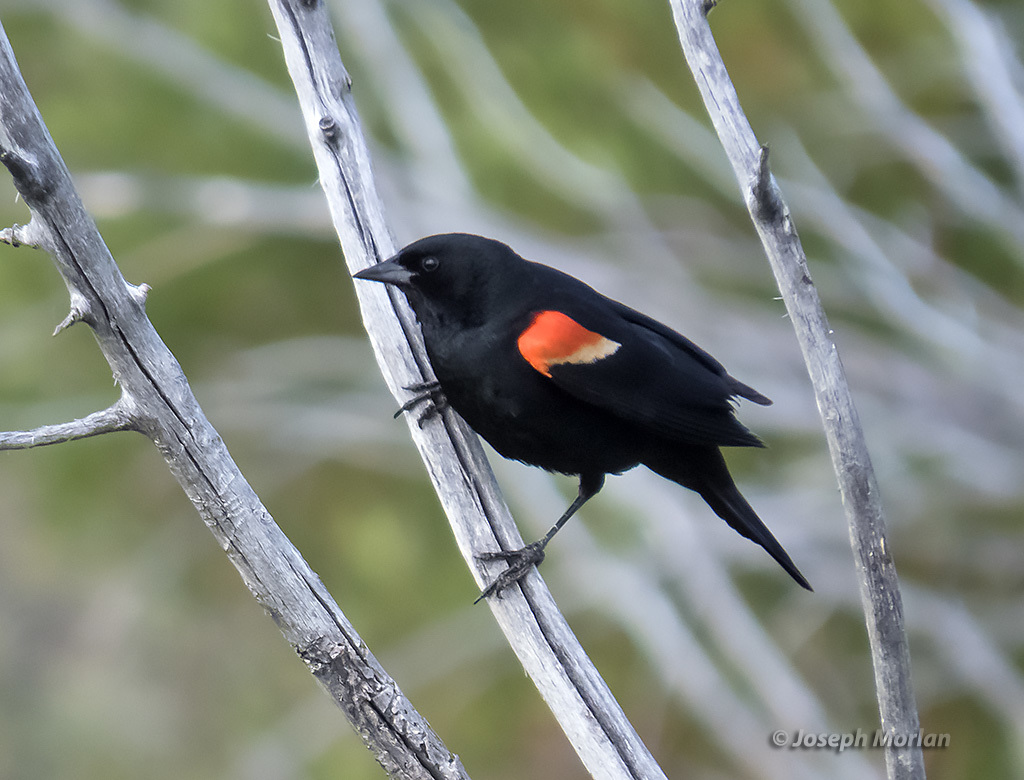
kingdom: Animalia
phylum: Chordata
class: Aves
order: Passeriformes
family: Icteridae
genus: Agelaius
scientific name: Agelaius phoeniceus
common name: Red-winged blackbird
